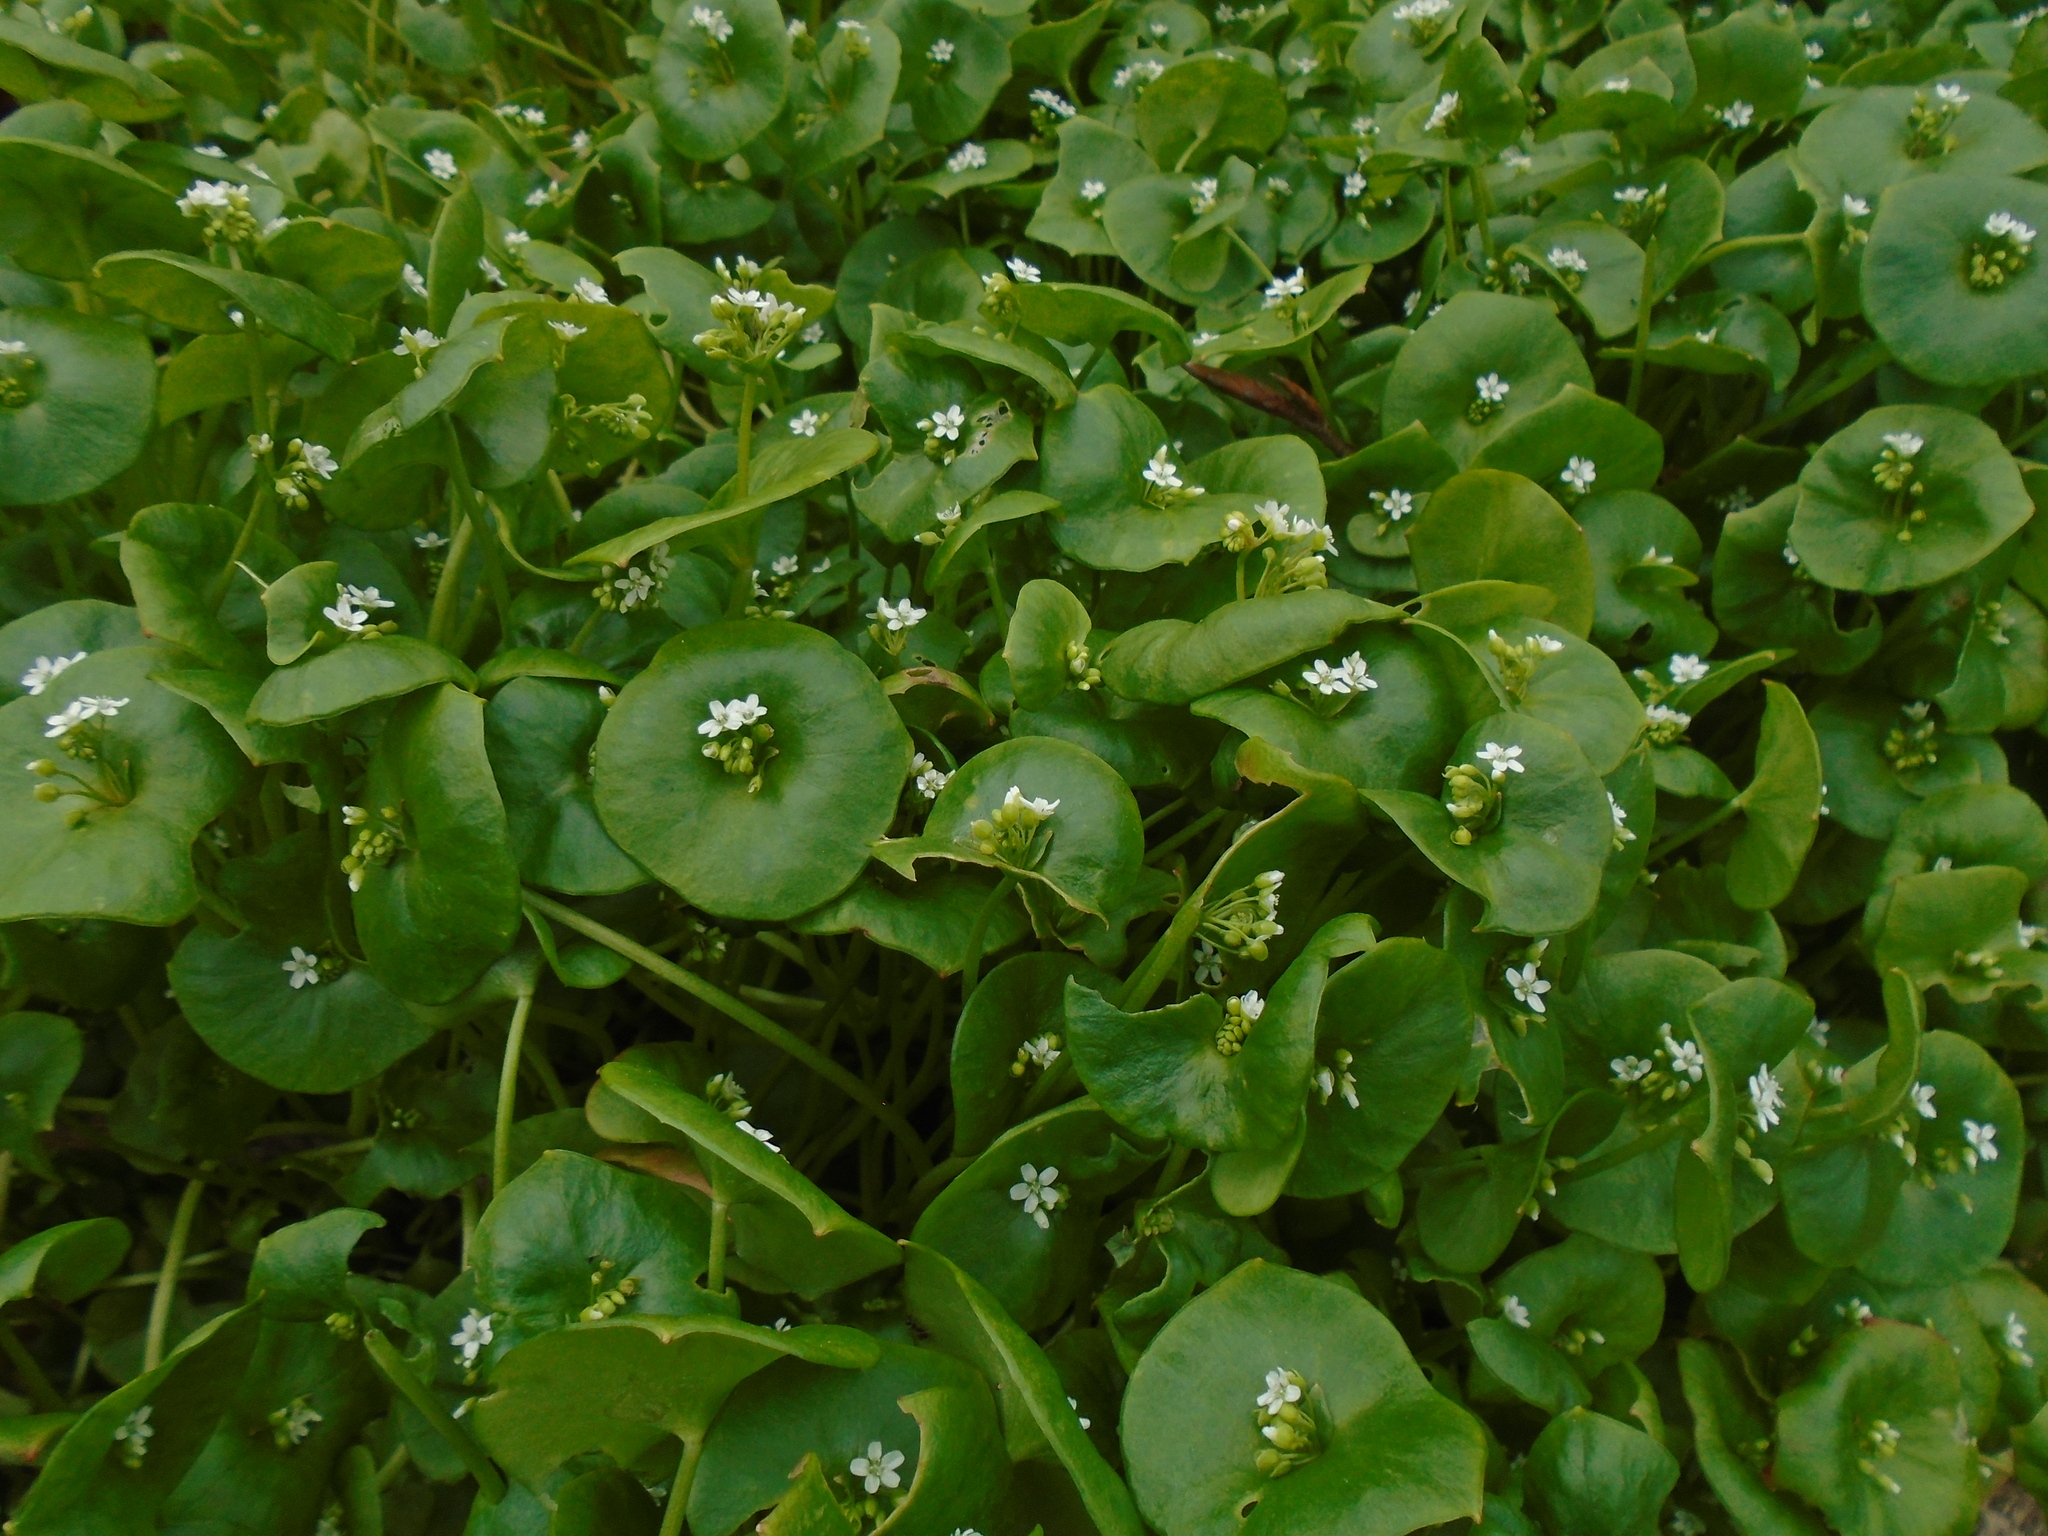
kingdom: Plantae
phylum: Tracheophyta
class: Magnoliopsida
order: Caryophyllales
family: Montiaceae
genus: Claytonia
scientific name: Claytonia perfoliata
